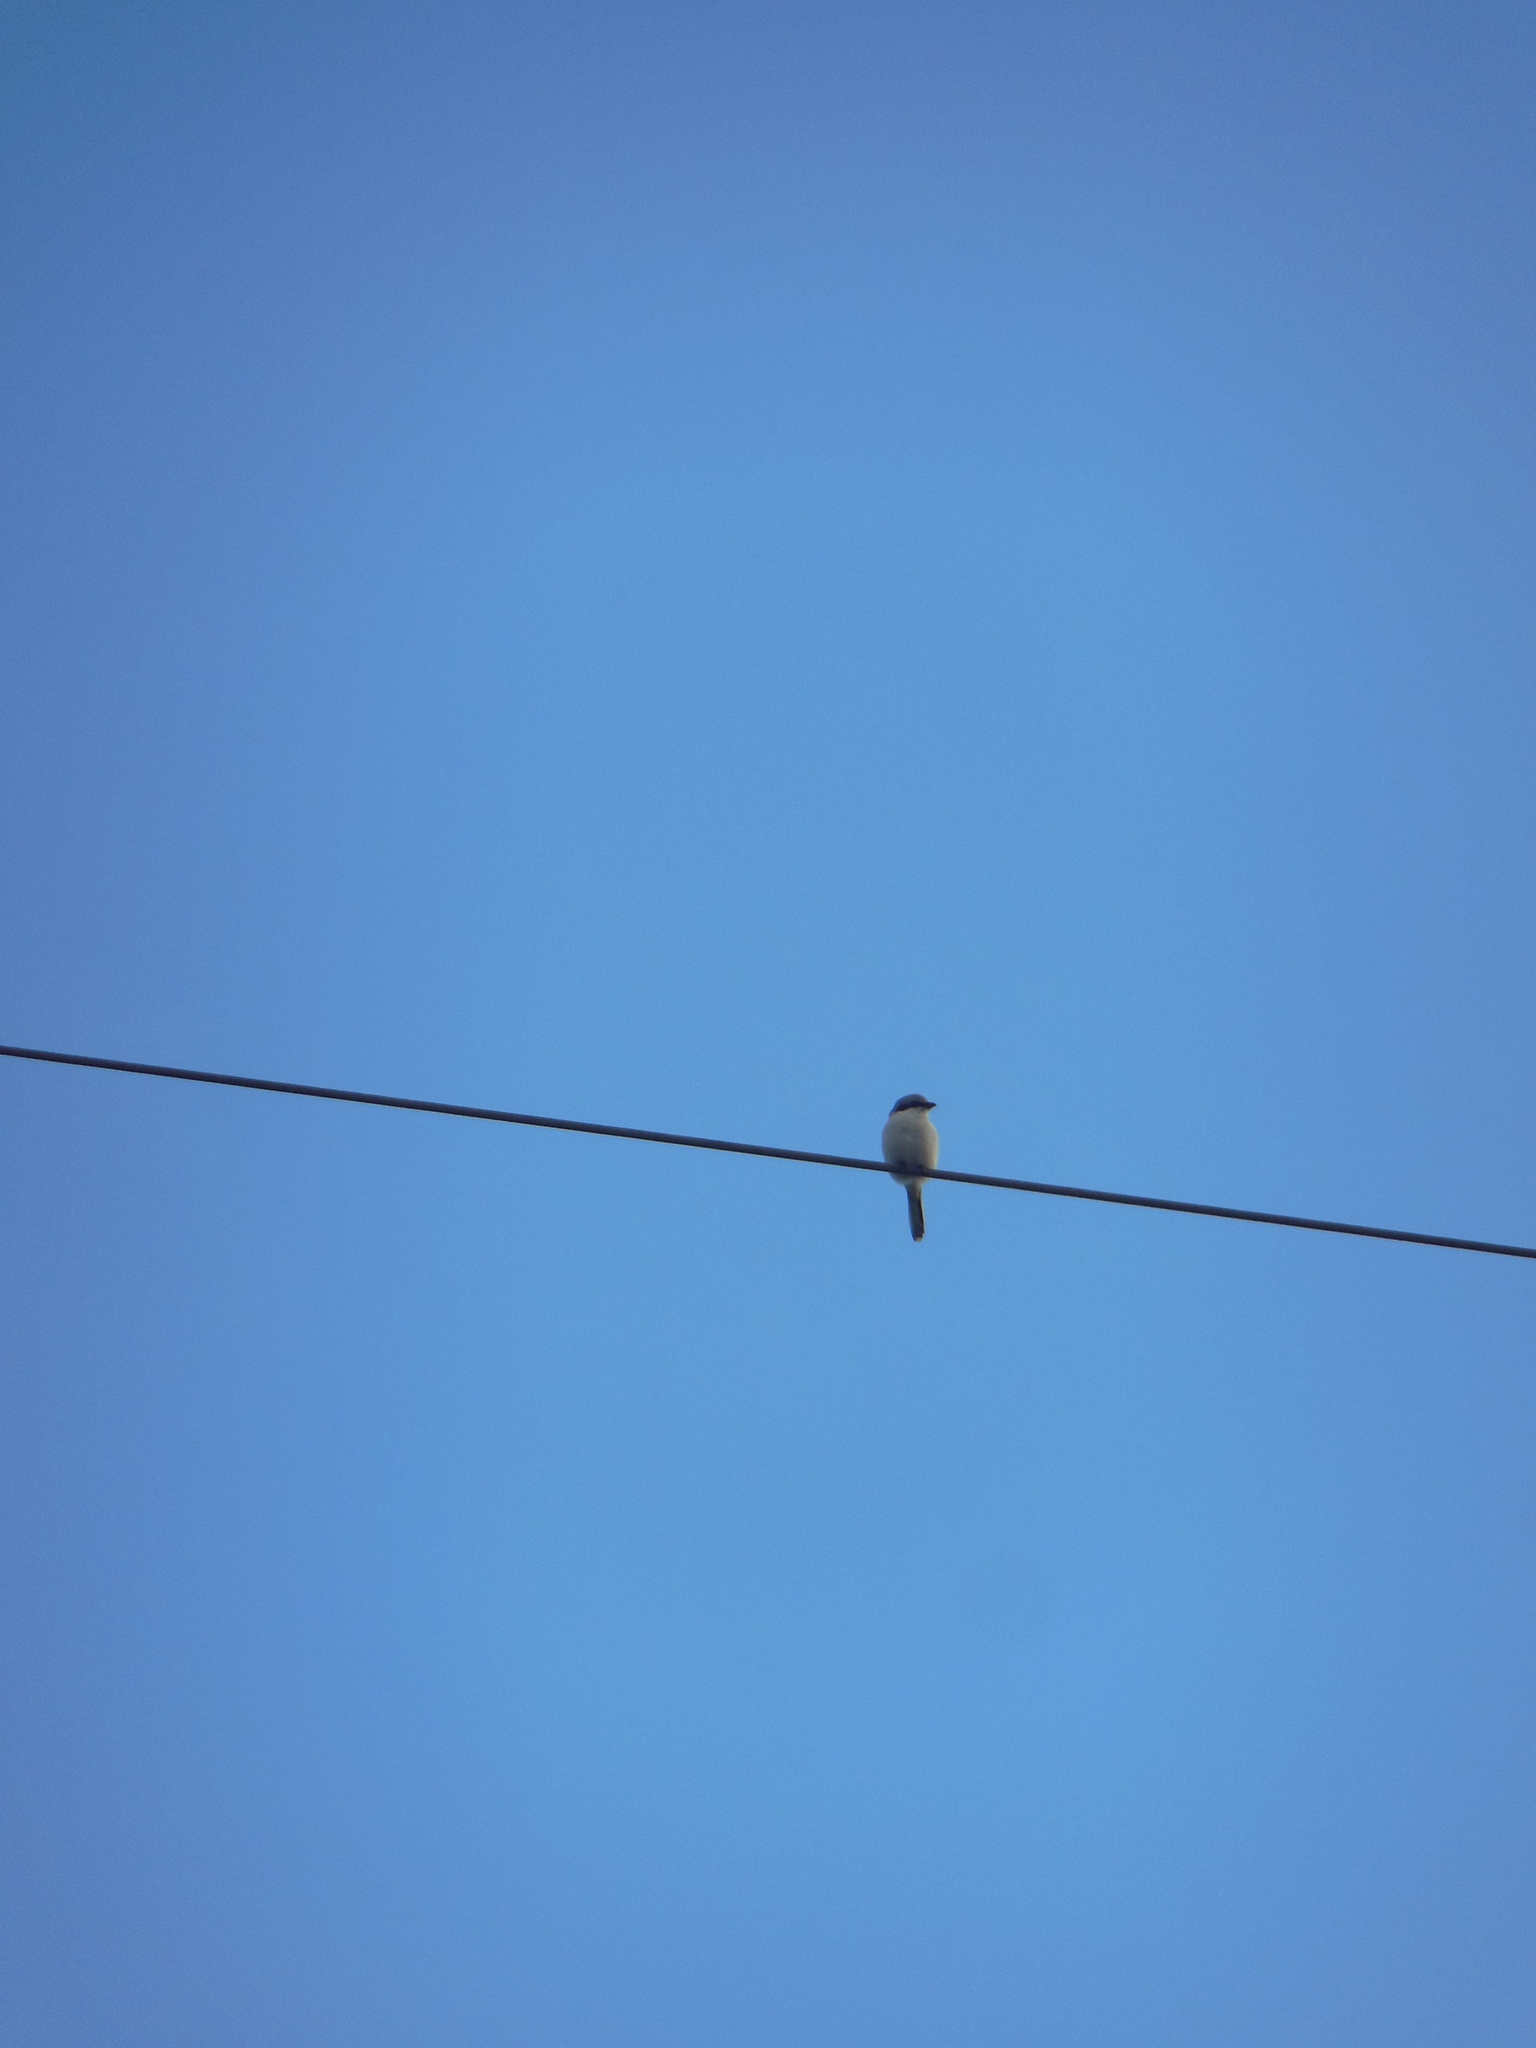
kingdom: Animalia
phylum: Chordata
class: Aves
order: Passeriformes
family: Laniidae
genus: Lanius
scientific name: Lanius excubitor
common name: Great grey shrike
